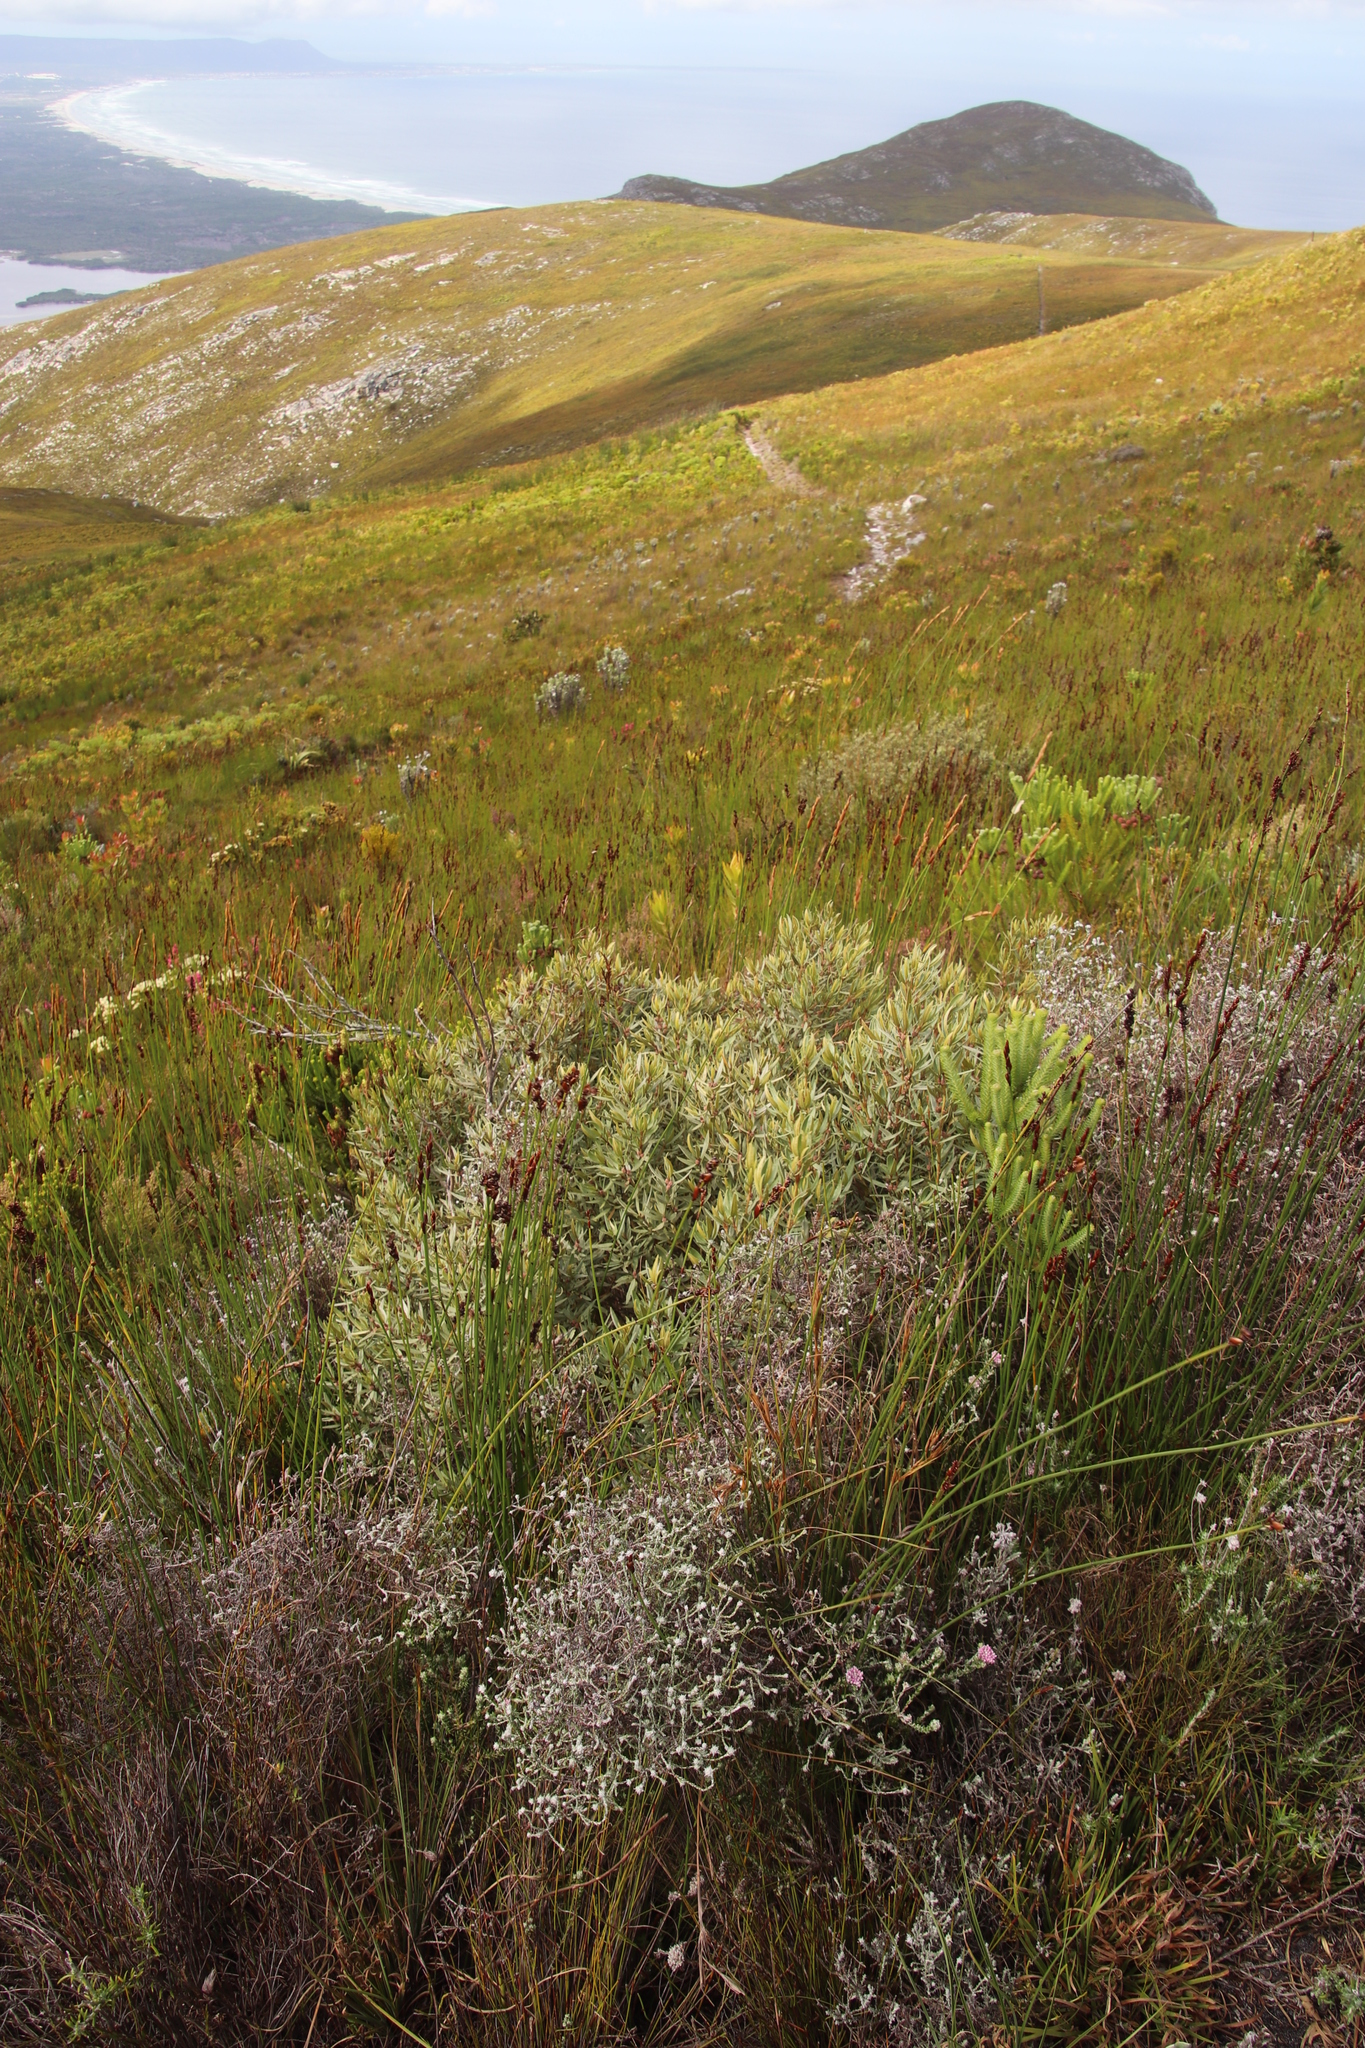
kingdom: Plantae
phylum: Tracheophyta
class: Magnoliopsida
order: Cornales
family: Grubbiaceae
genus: Grubbia
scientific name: Grubbia tomentosa
